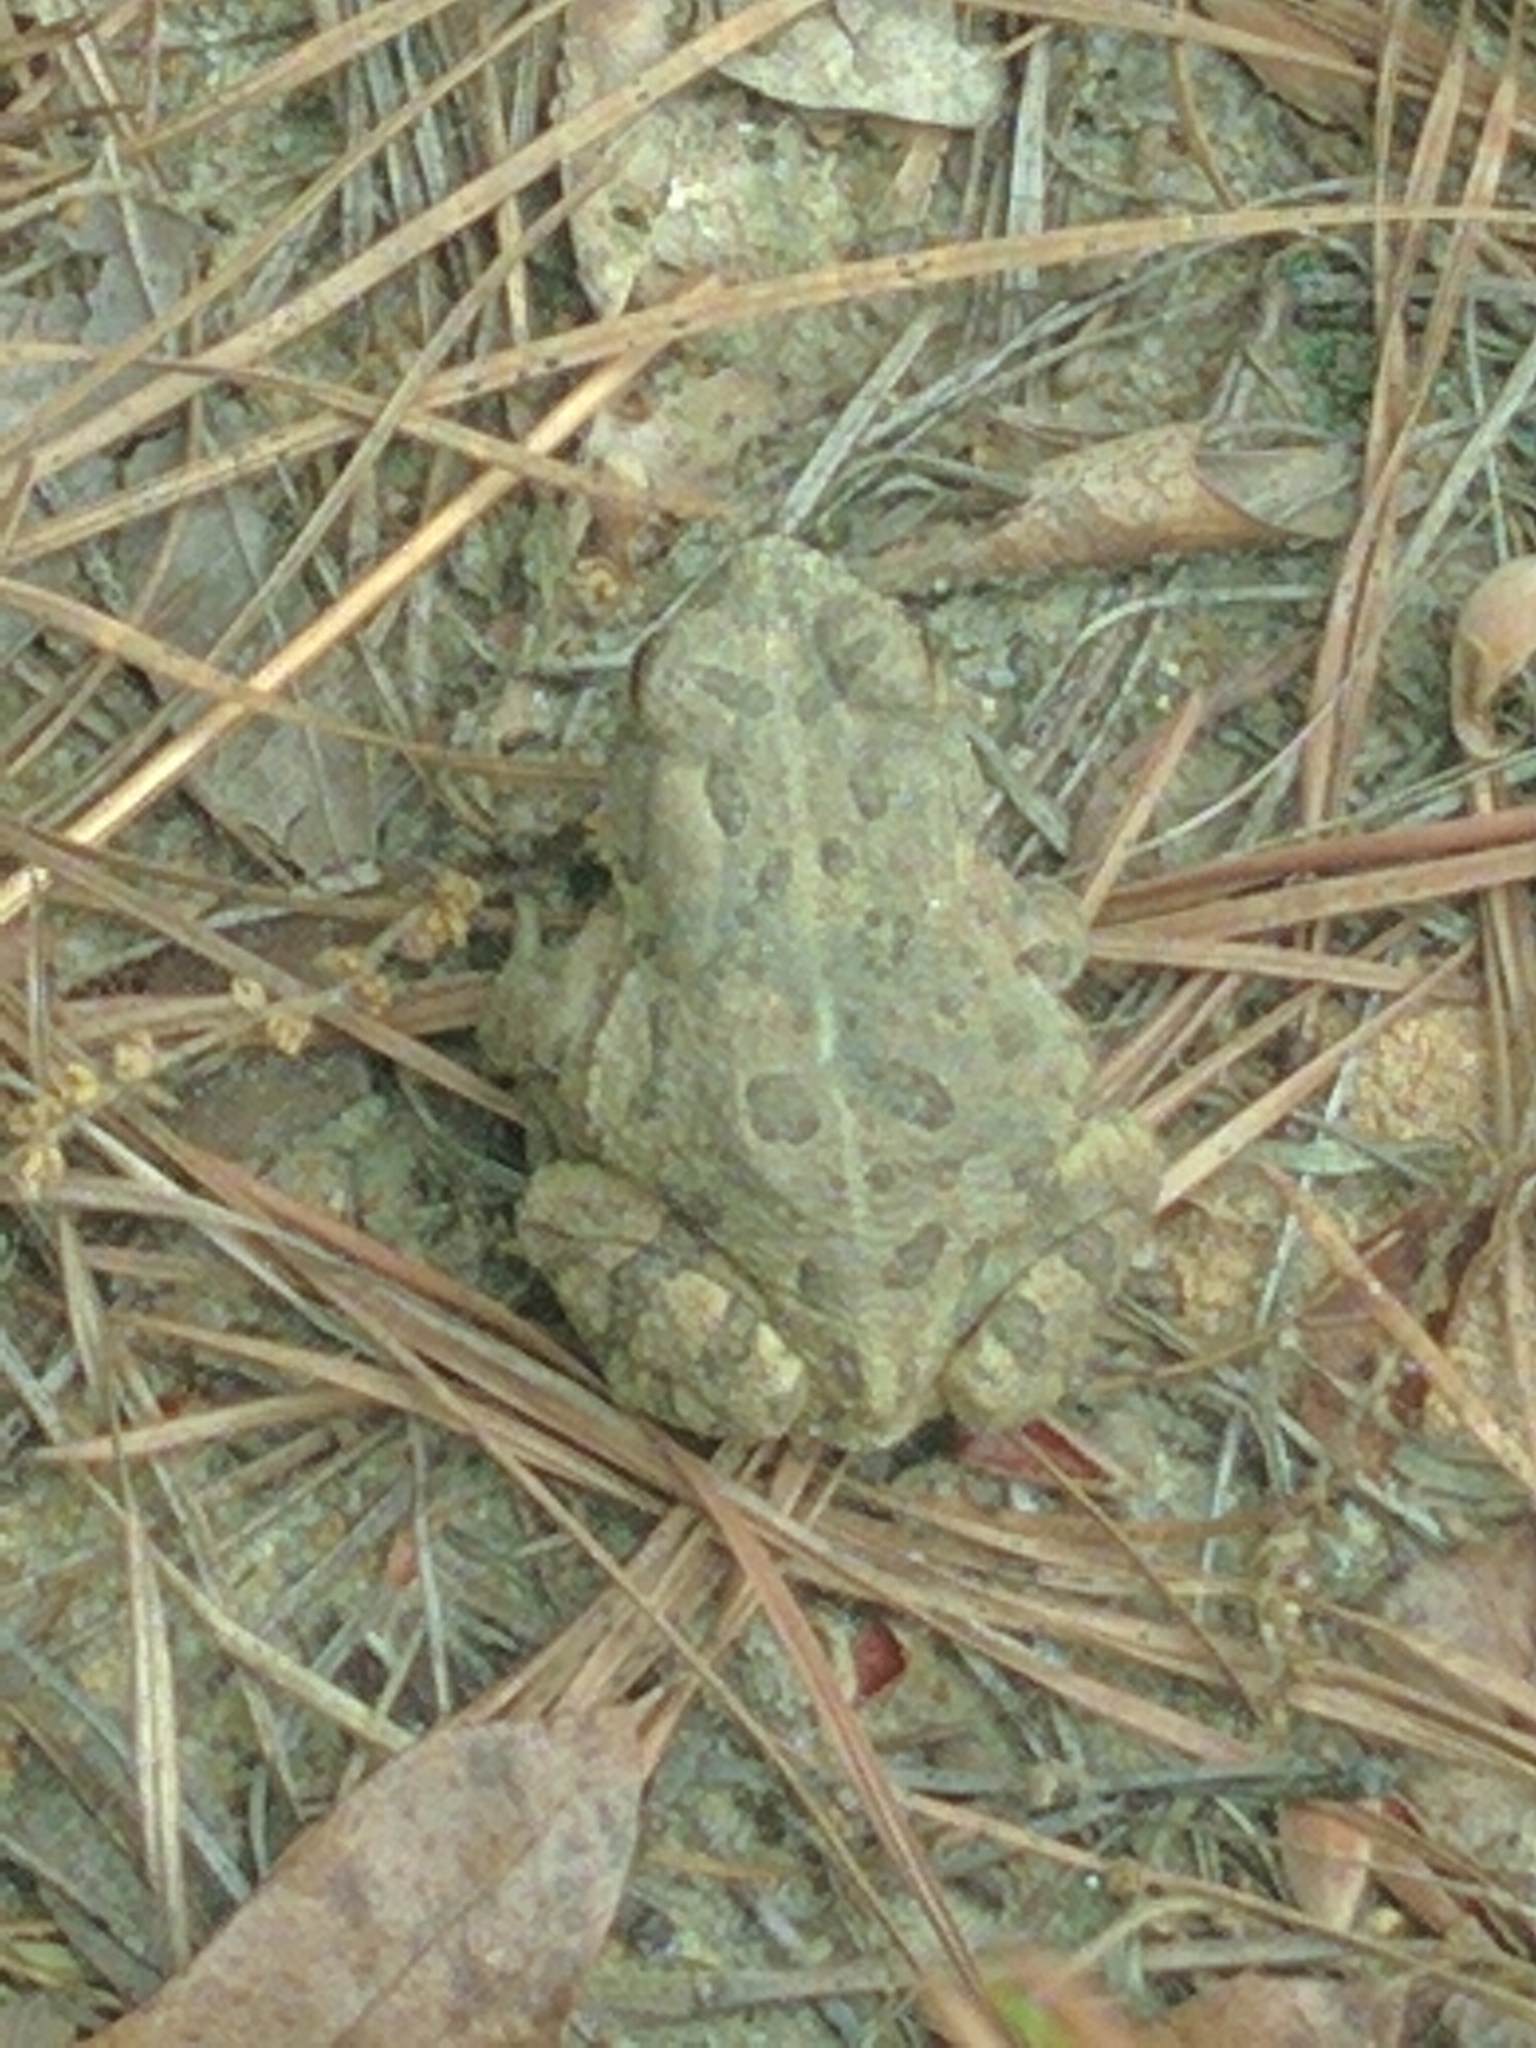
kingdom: Animalia
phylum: Chordata
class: Amphibia
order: Anura
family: Bufonidae
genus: Anaxyrus
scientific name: Anaxyrus fowleri
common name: Fowler's toad
